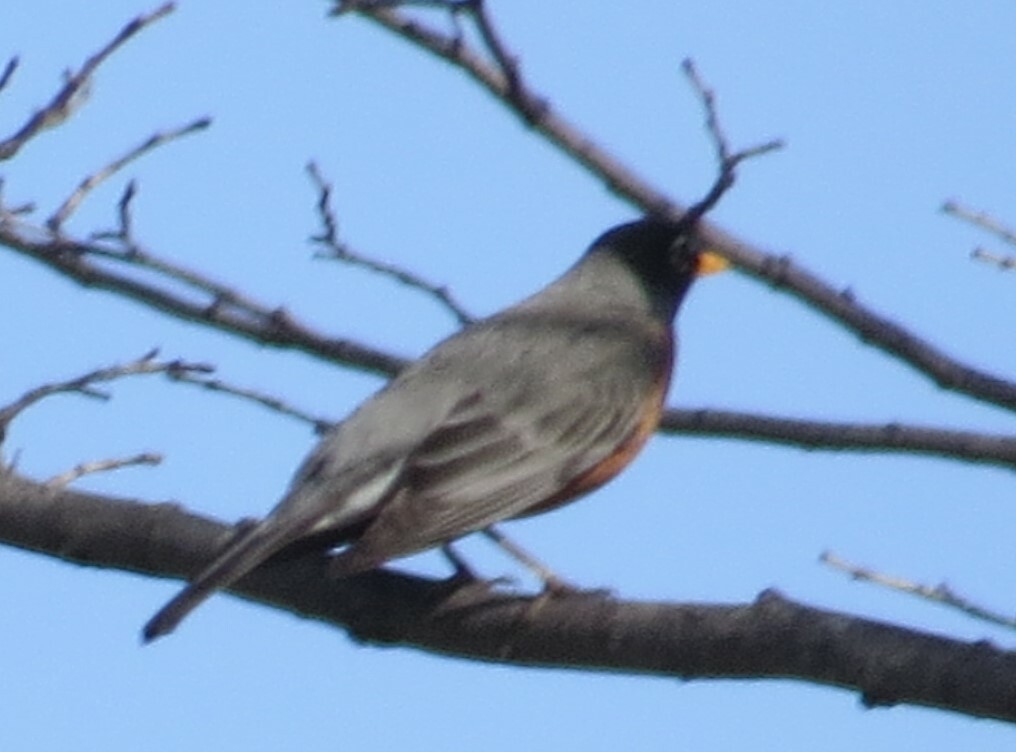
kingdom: Animalia
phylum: Chordata
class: Aves
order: Passeriformes
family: Turdidae
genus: Turdus
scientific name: Turdus migratorius
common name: American robin
